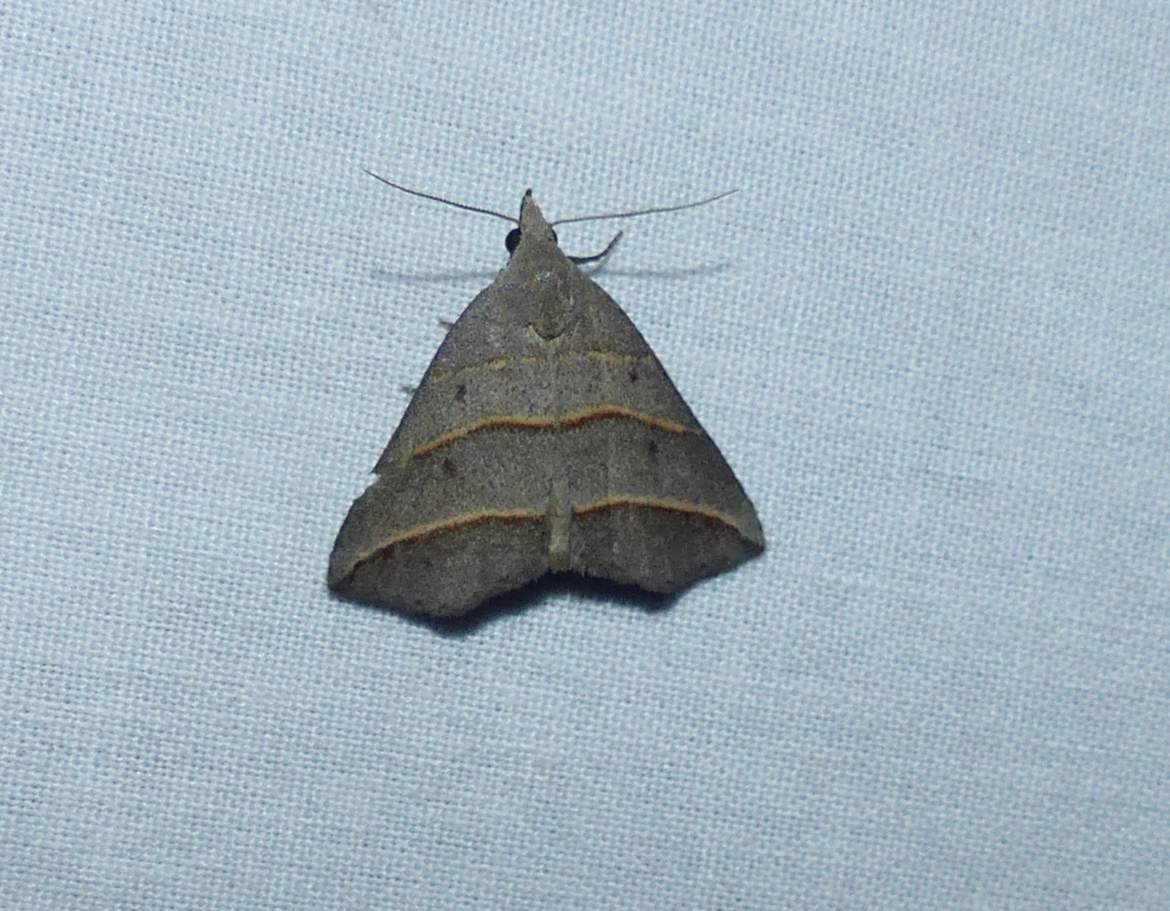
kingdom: Animalia
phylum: Arthropoda
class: Insecta
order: Lepidoptera
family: Erebidae
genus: Colobochyla
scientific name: Colobochyla interpuncta
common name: Yellow-lined owlet
